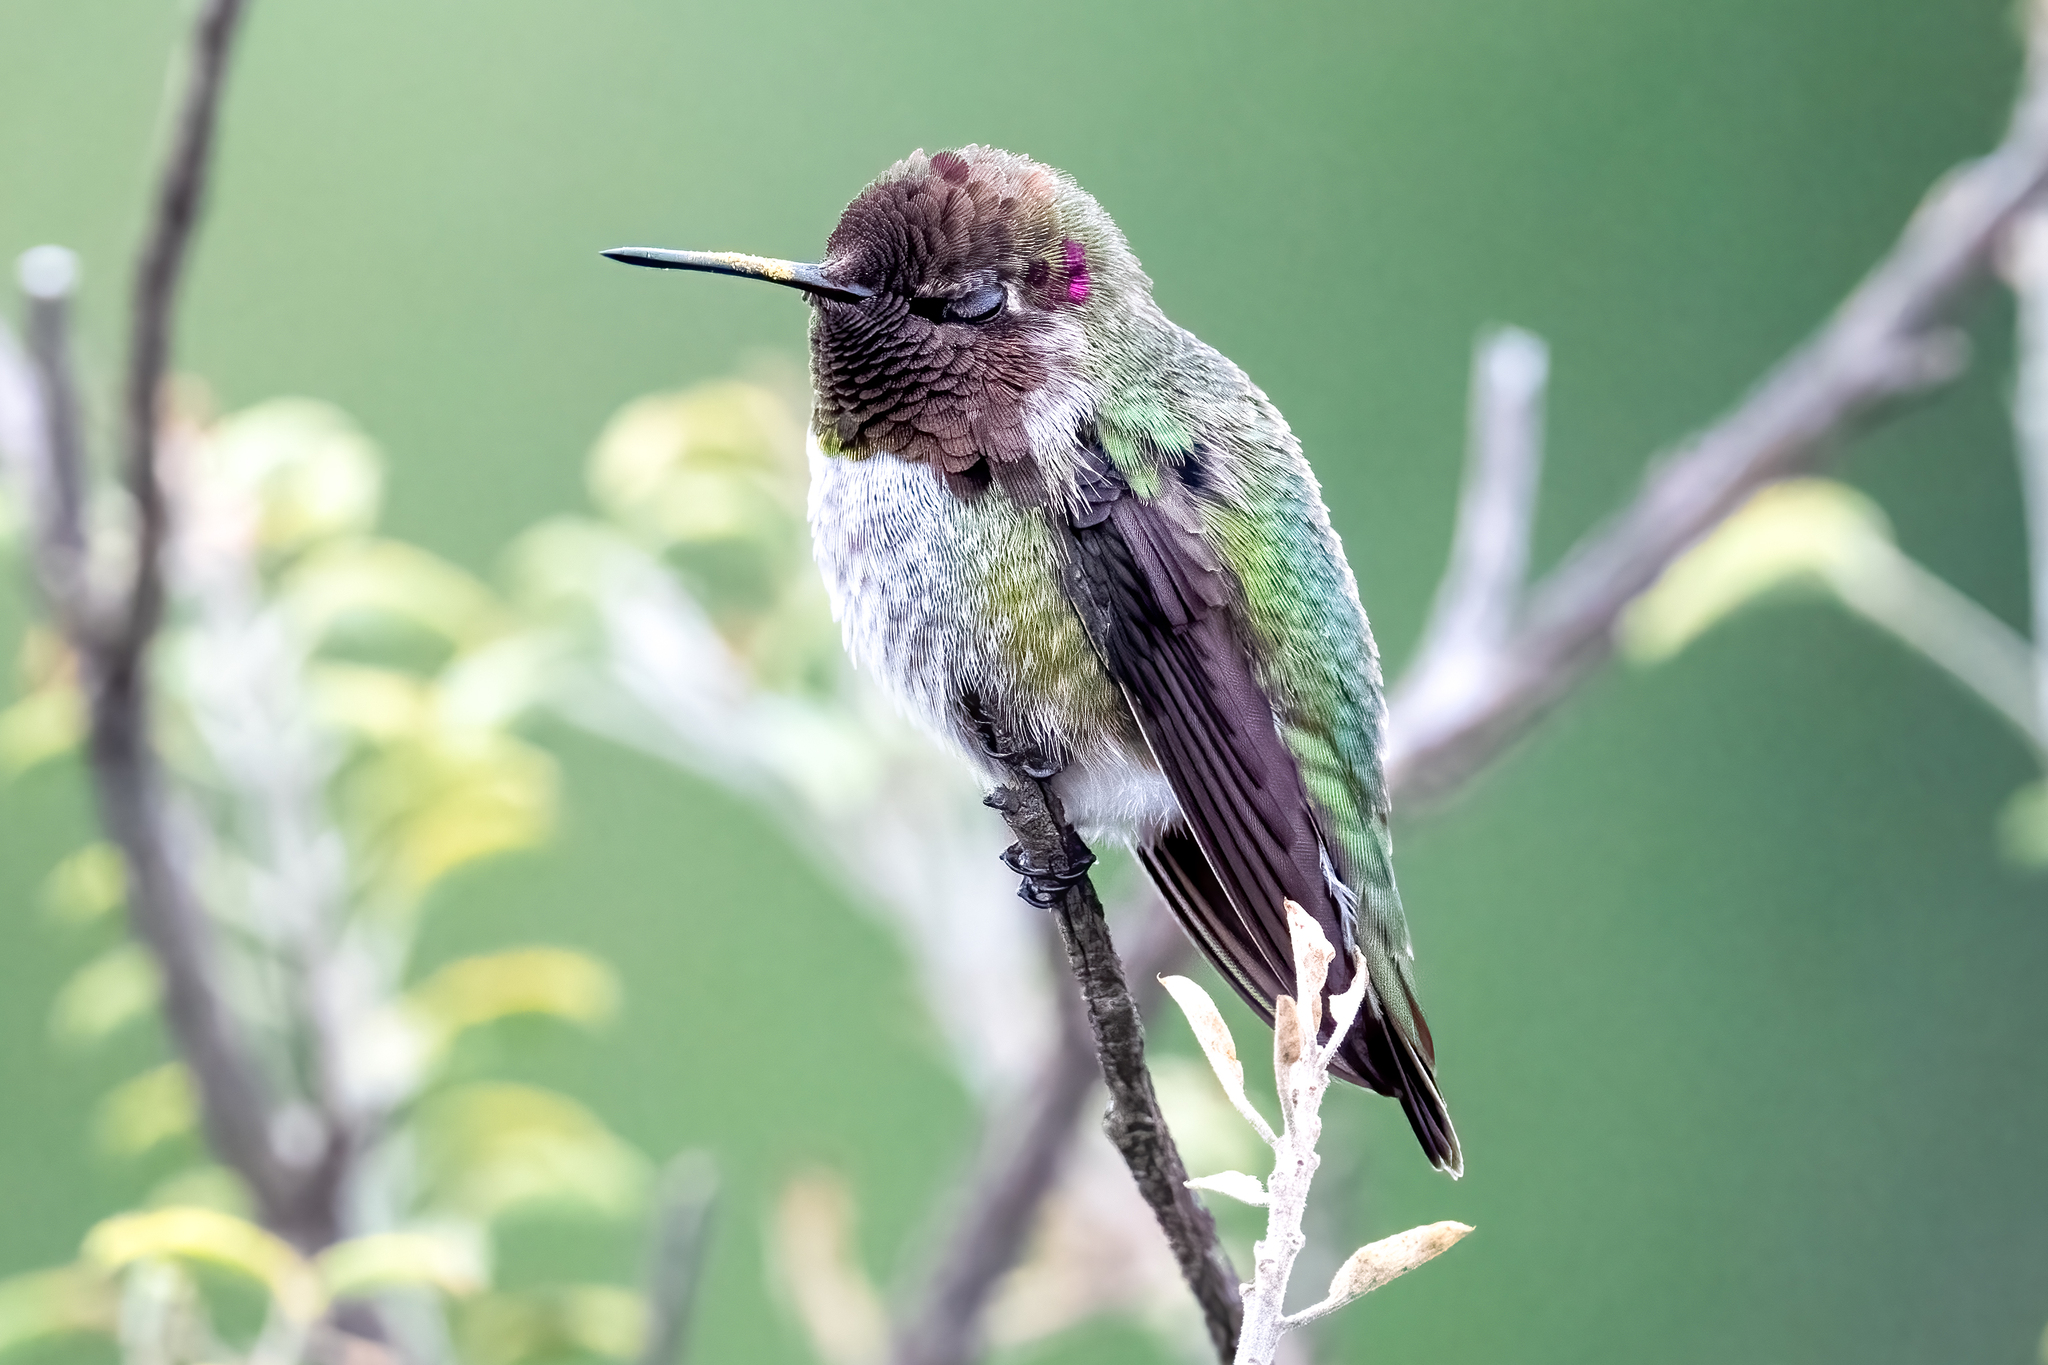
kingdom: Animalia
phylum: Chordata
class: Aves
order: Apodiformes
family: Trochilidae
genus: Calypte
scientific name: Calypte anna
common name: Anna's hummingbird
